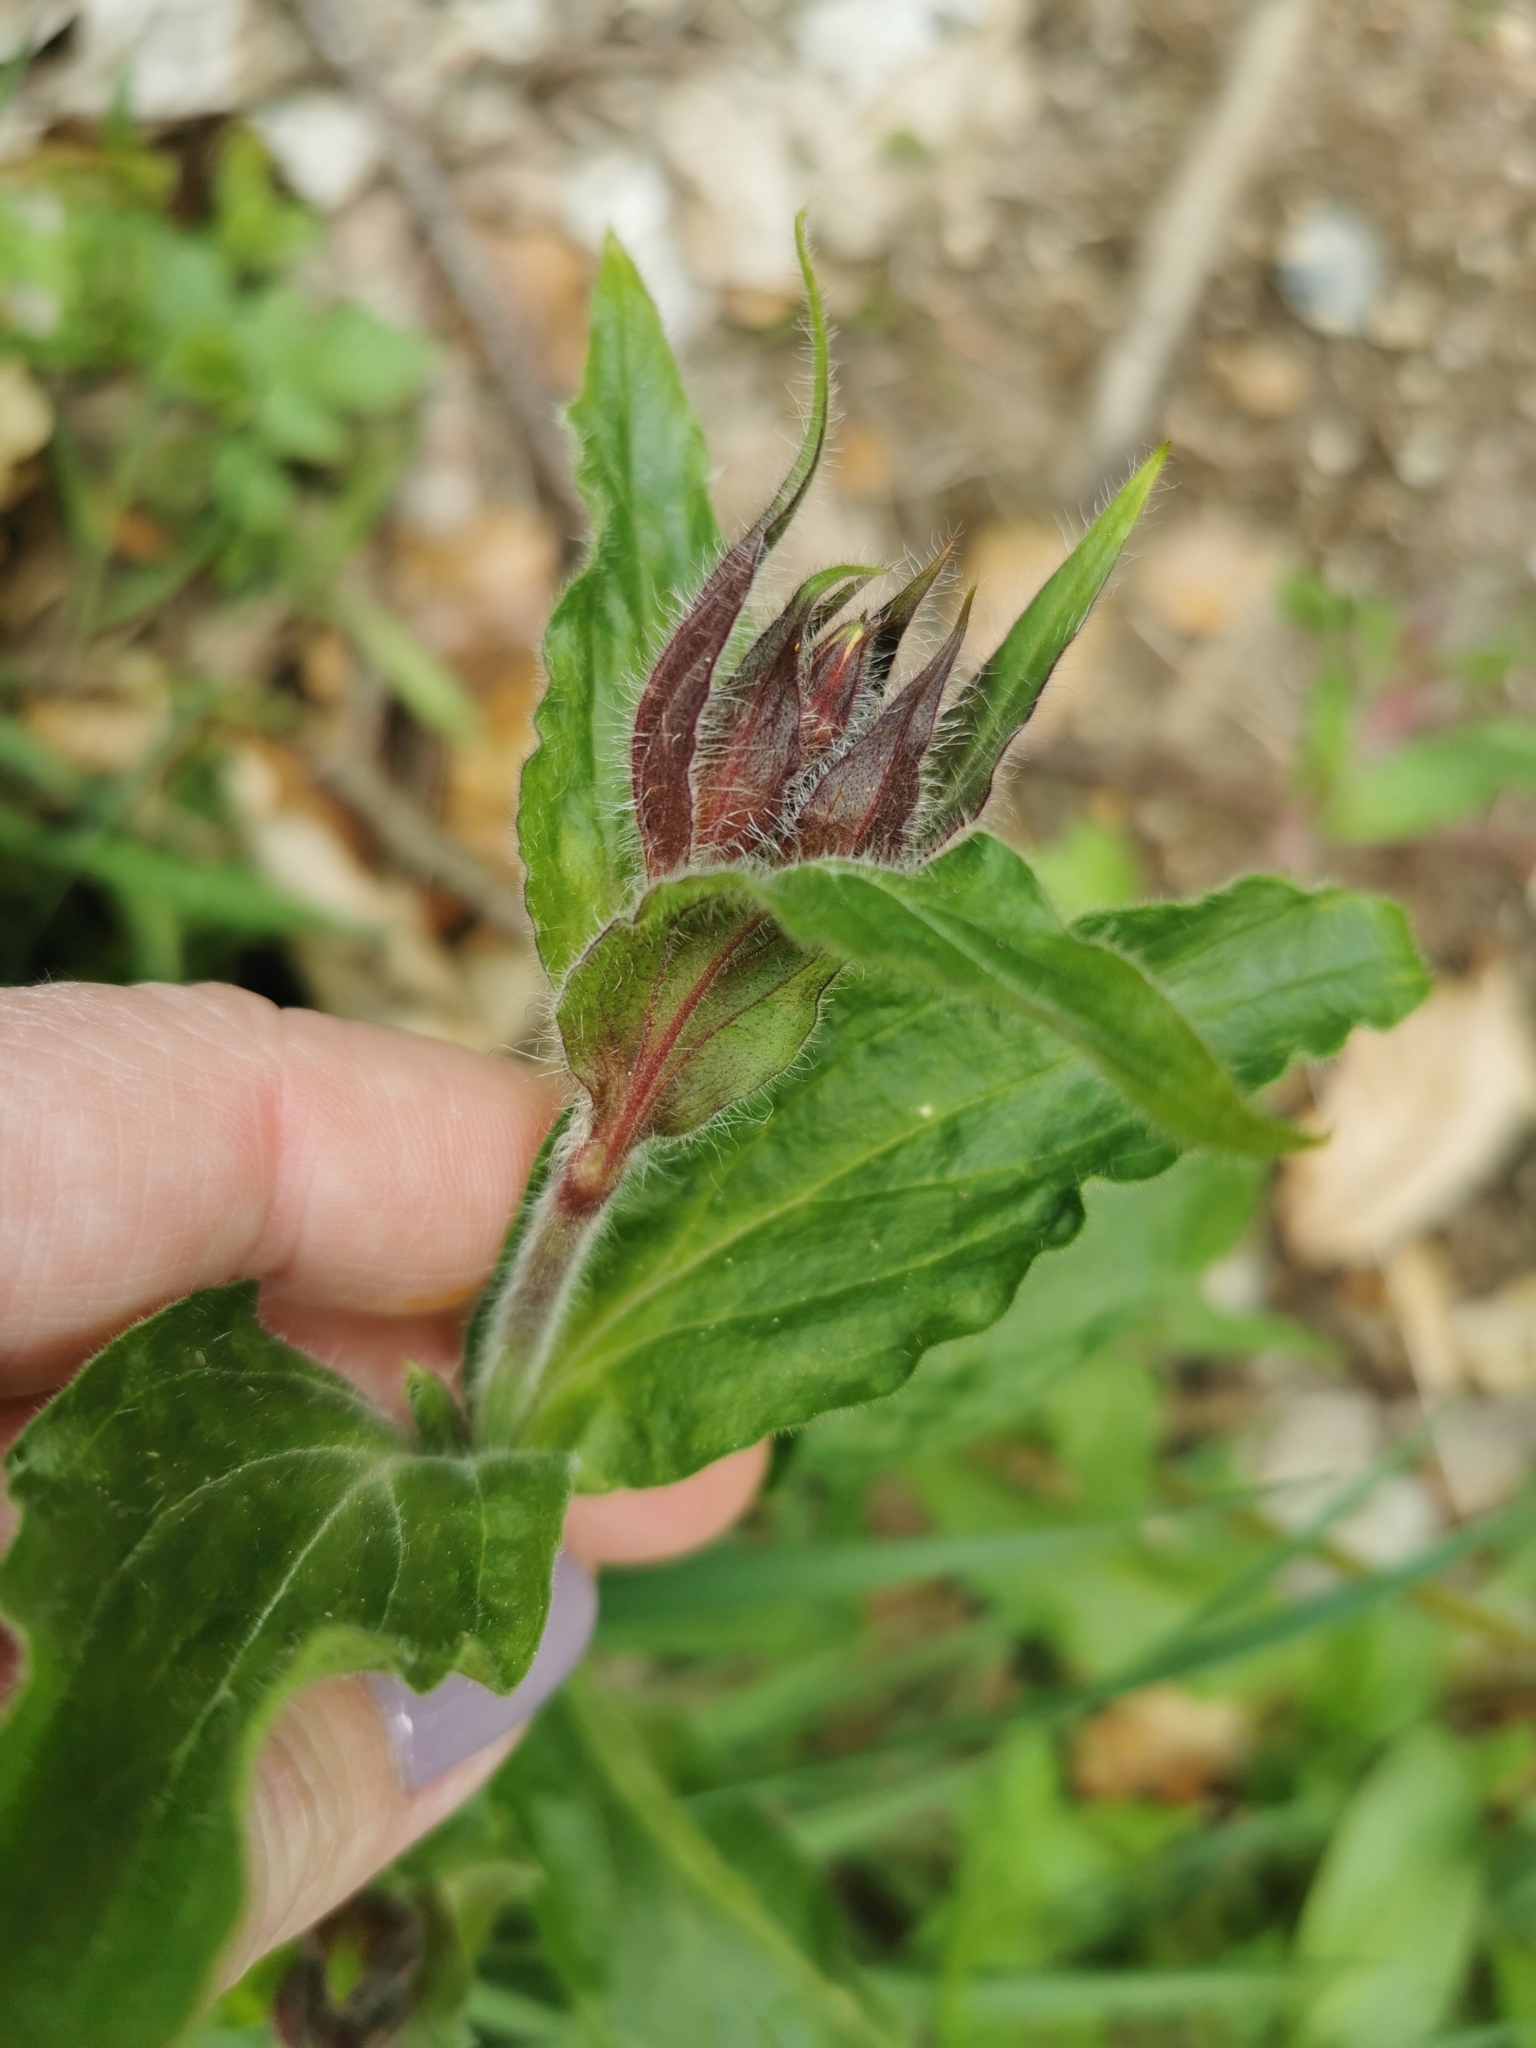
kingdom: Plantae
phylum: Tracheophyta
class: Magnoliopsida
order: Caryophyllales
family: Caryophyllaceae
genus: Silene
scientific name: Silene dioica
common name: Red campion
